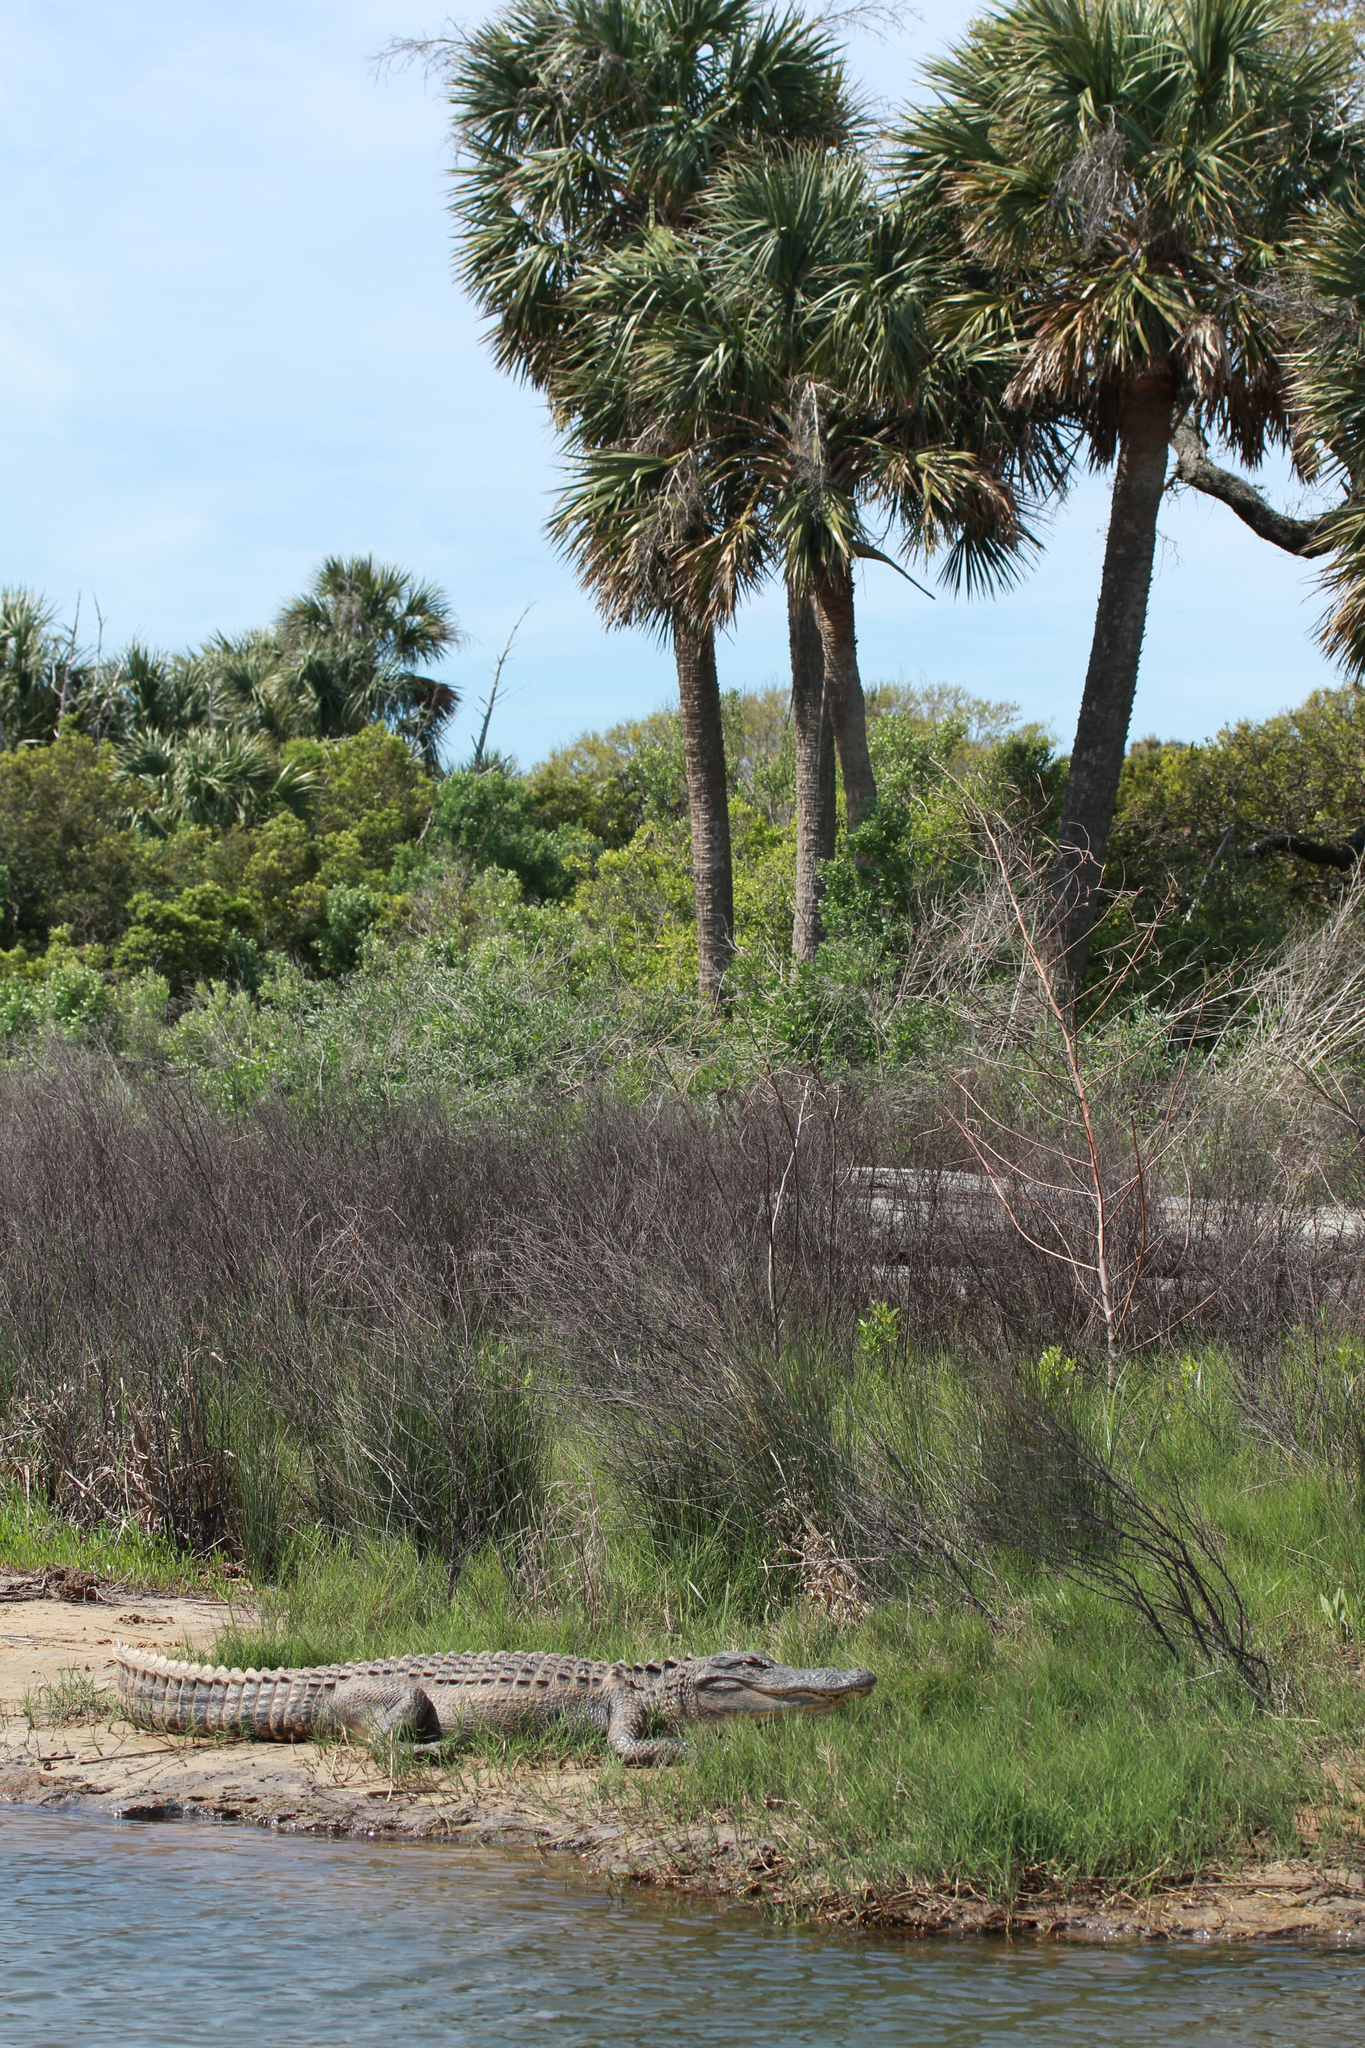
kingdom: Animalia
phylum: Chordata
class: Crocodylia
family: Alligatoridae
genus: Alligator
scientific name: Alligator mississippiensis
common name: American alligator
